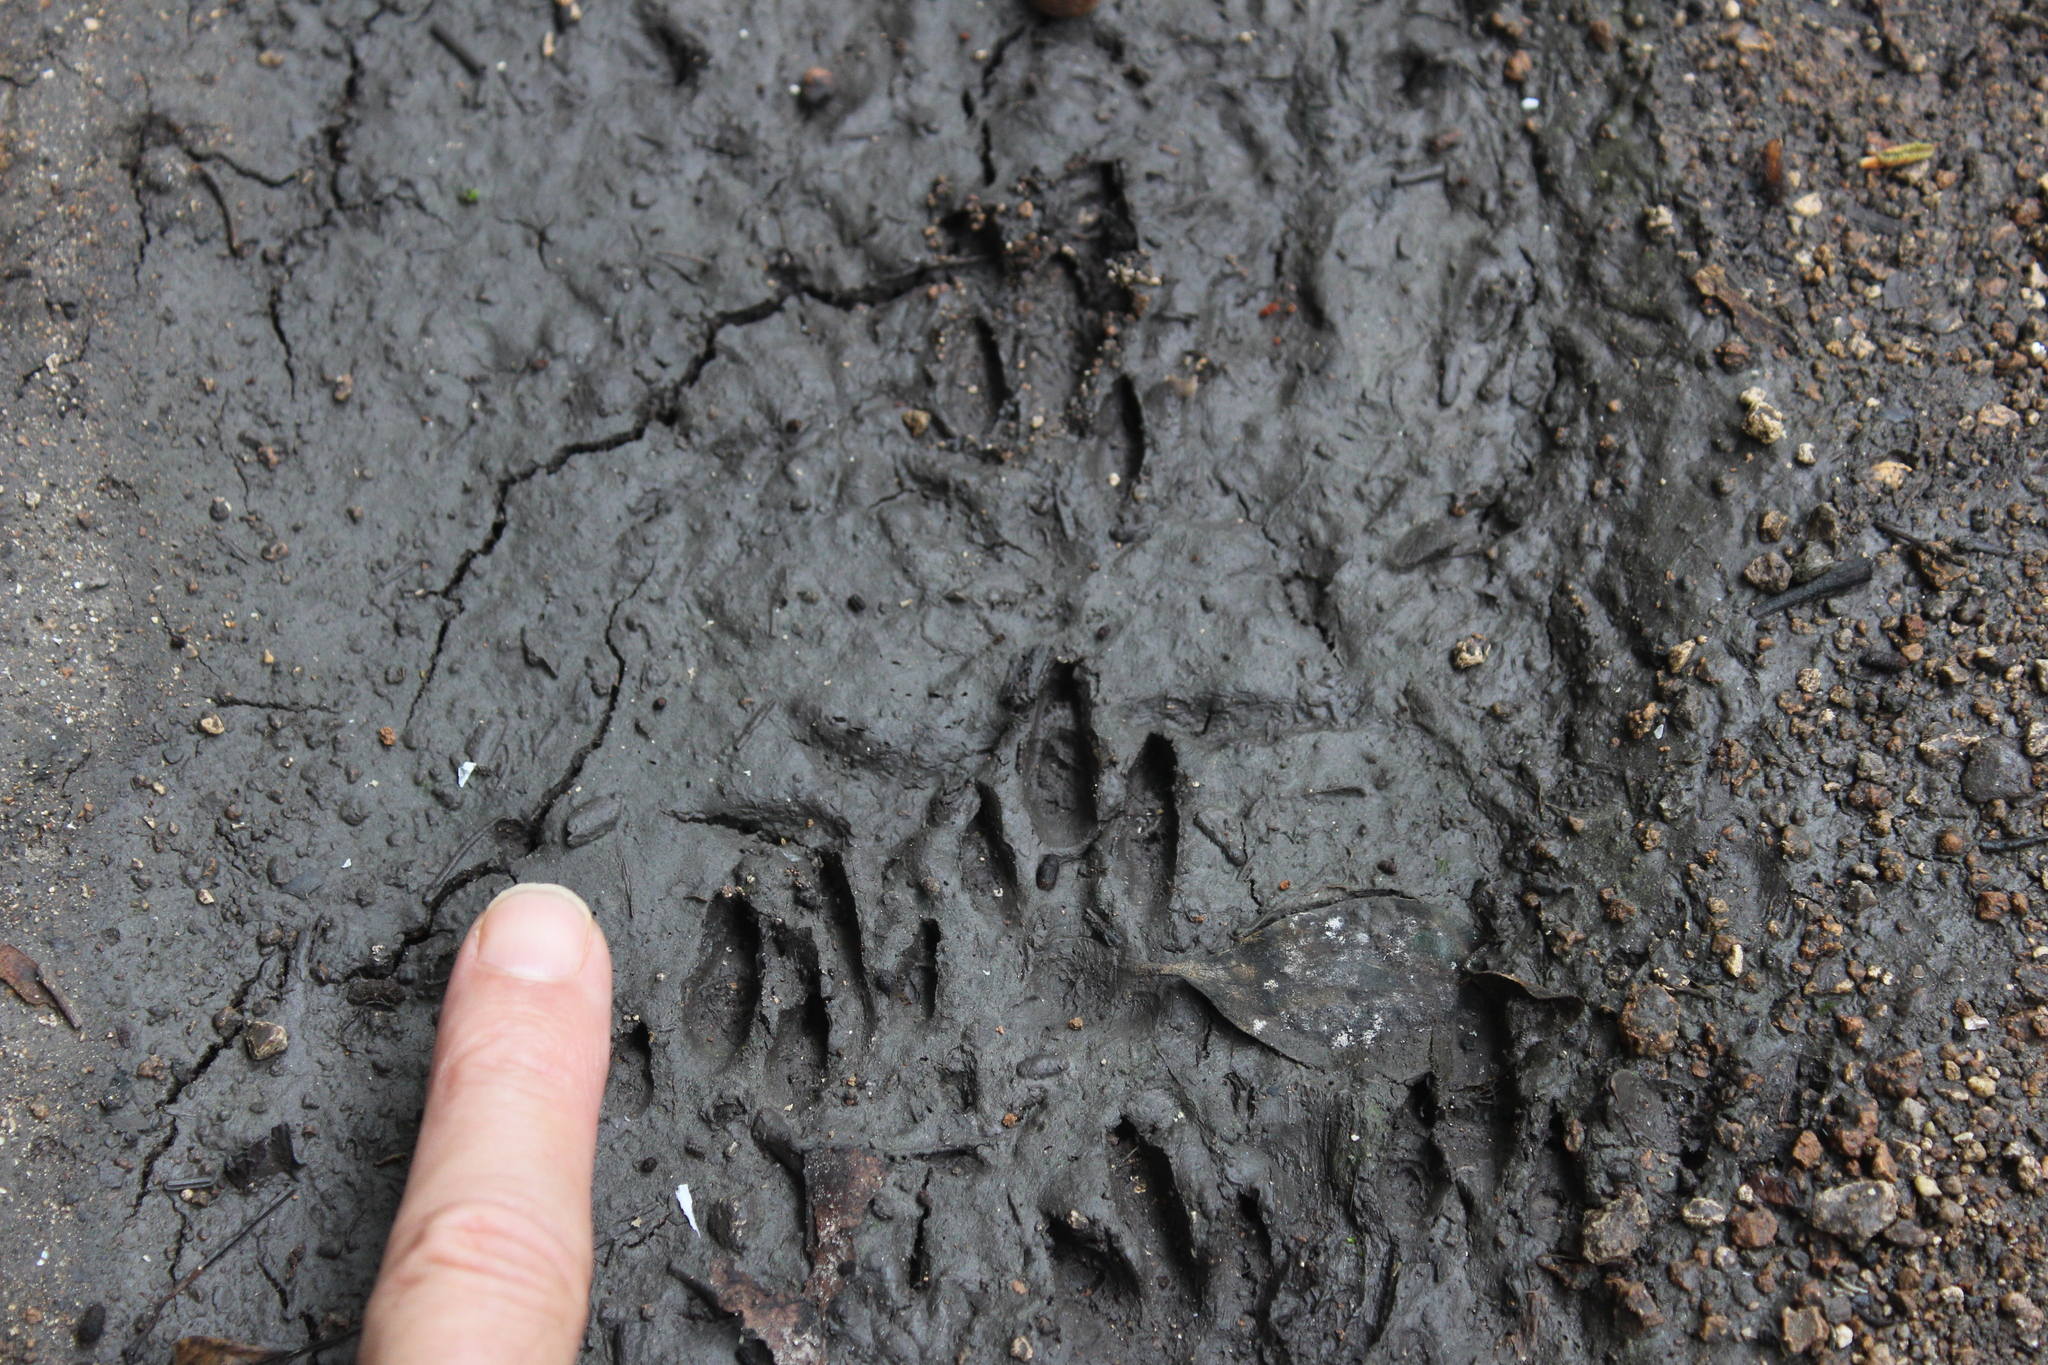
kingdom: Animalia
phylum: Chordata
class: Mammalia
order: Rodentia
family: Dasyproctidae
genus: Dasyprocta
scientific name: Dasyprocta punctata
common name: Central american agouti
